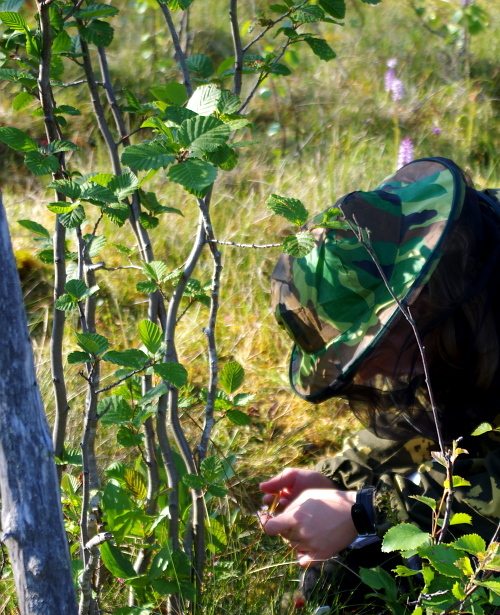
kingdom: Plantae
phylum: Tracheophyta
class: Magnoliopsida
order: Fagales
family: Betulaceae
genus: Alnus
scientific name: Alnus incana
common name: Grey alder
